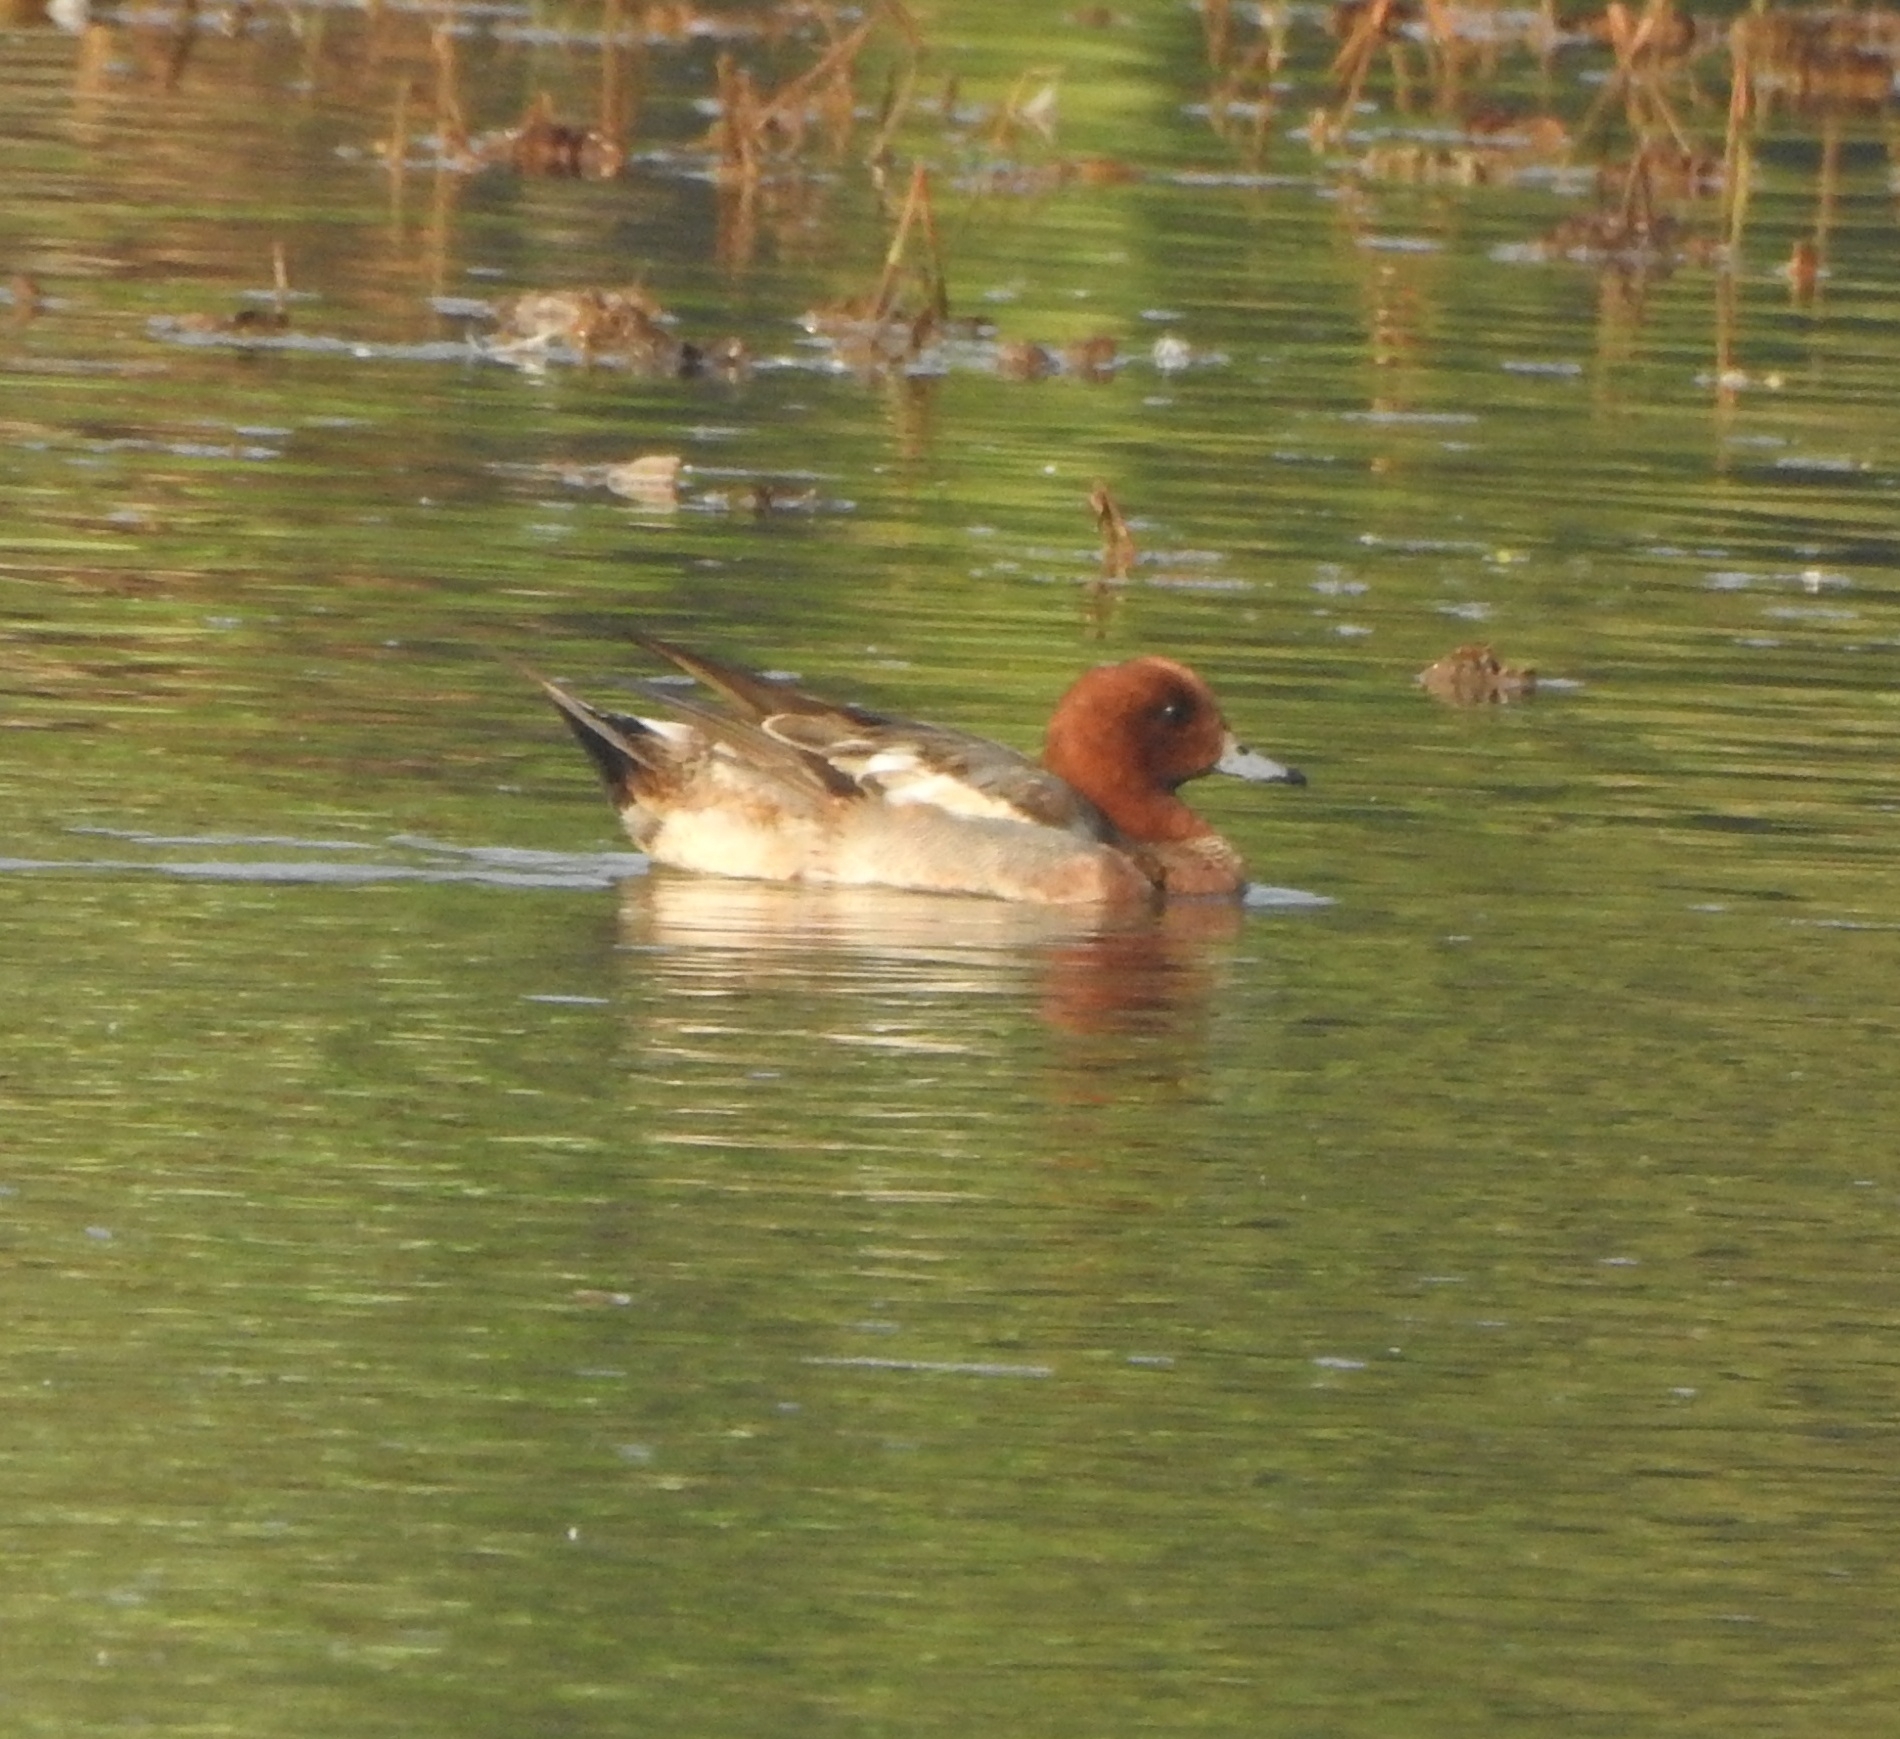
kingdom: Animalia
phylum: Chordata
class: Aves
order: Anseriformes
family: Anatidae
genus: Mareca
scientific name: Mareca penelope
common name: Eurasian wigeon
